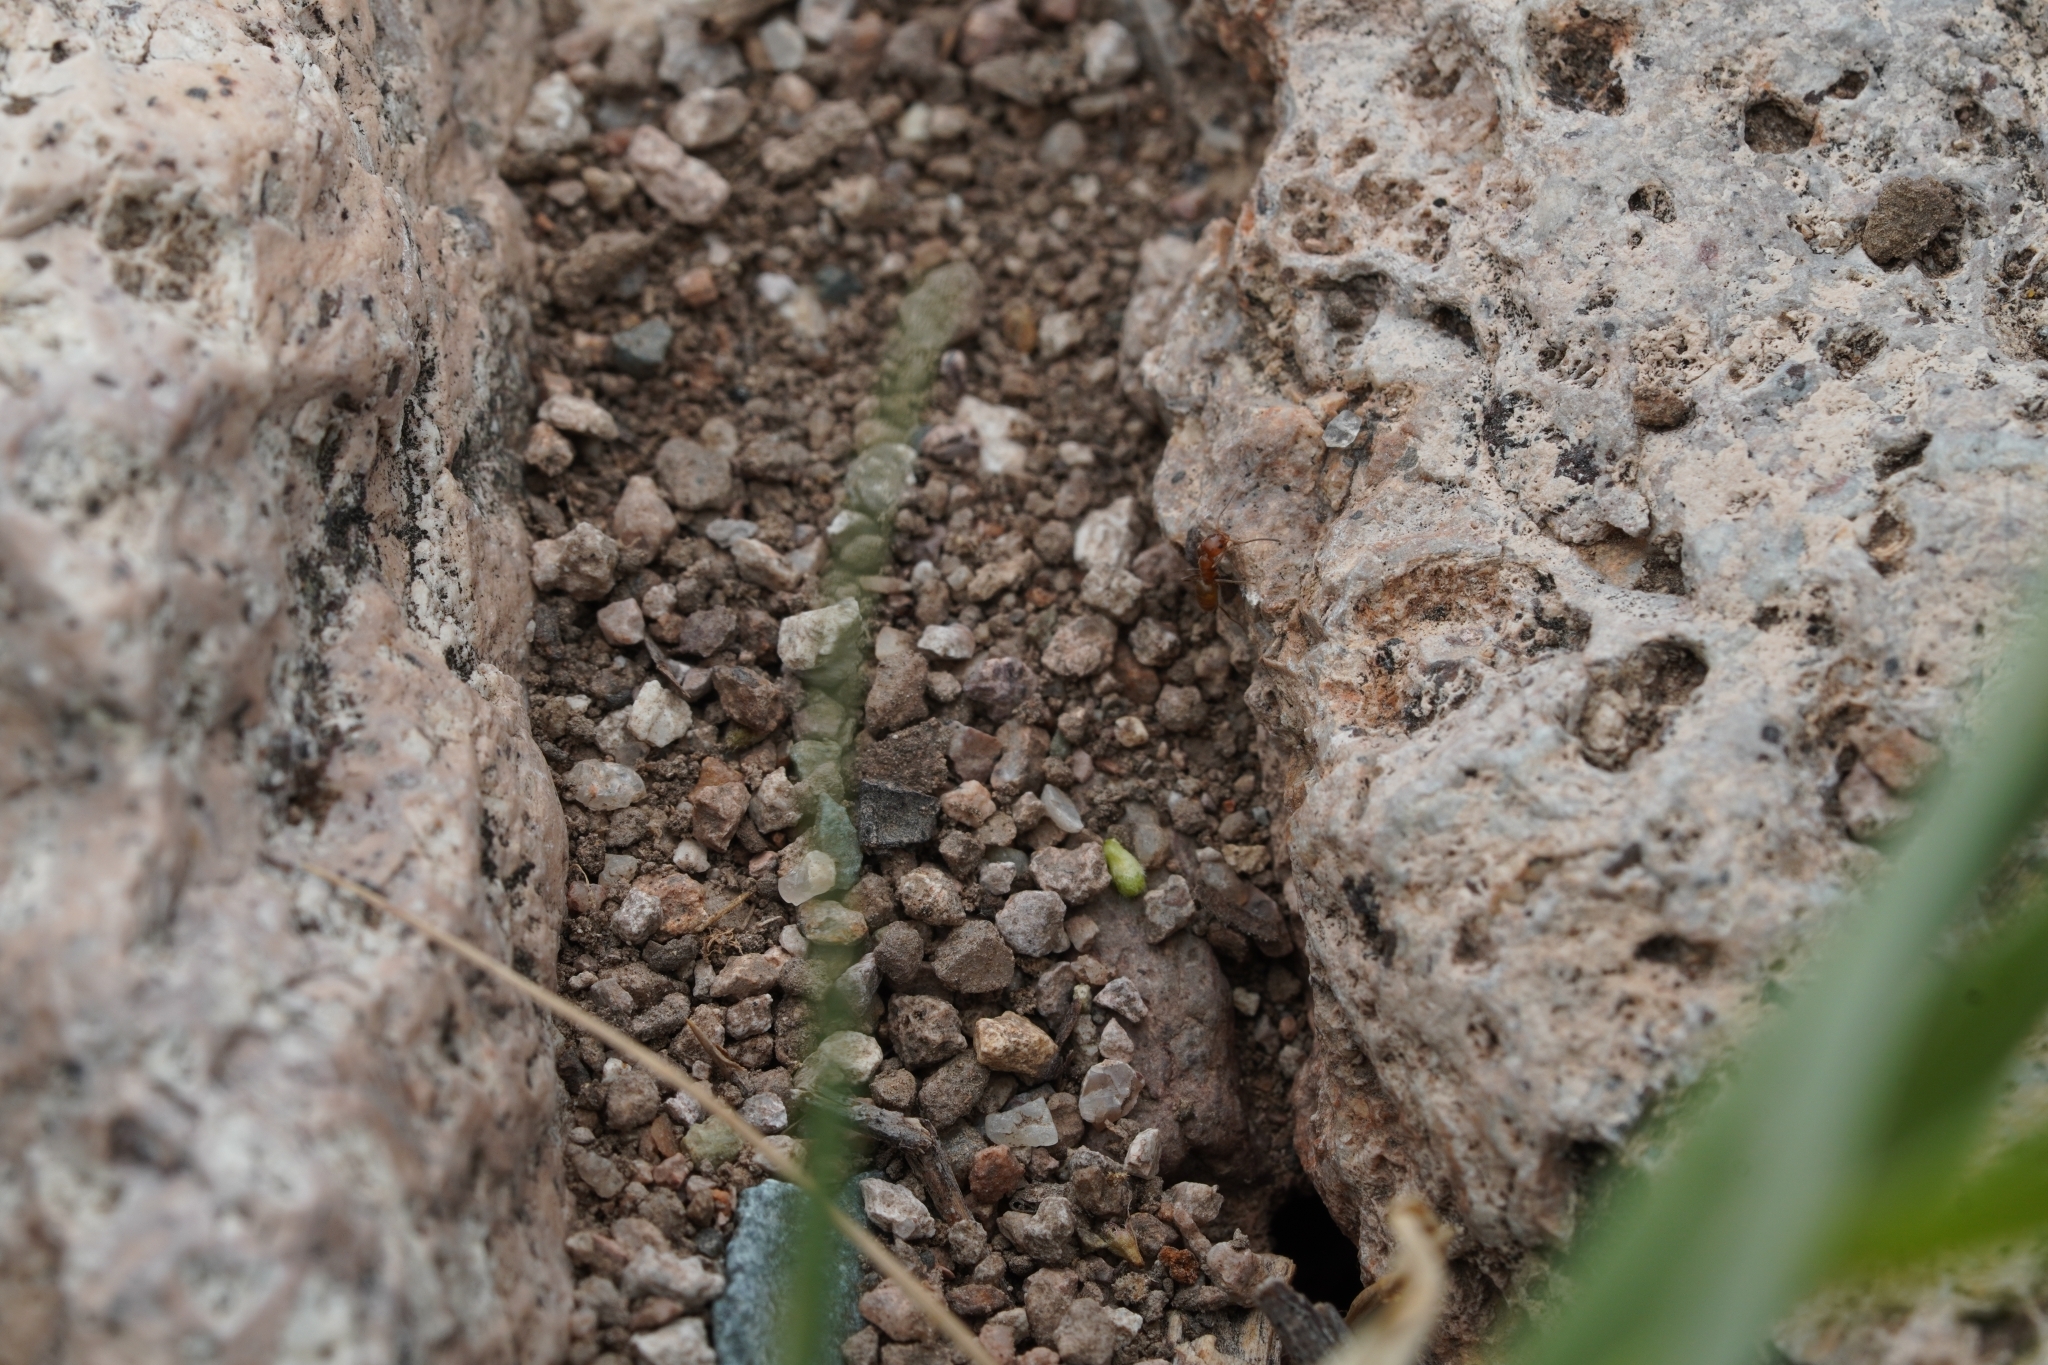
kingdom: Animalia
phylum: Arthropoda
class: Insecta
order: Hymenoptera
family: Formicidae
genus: Forelius
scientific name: Forelius
